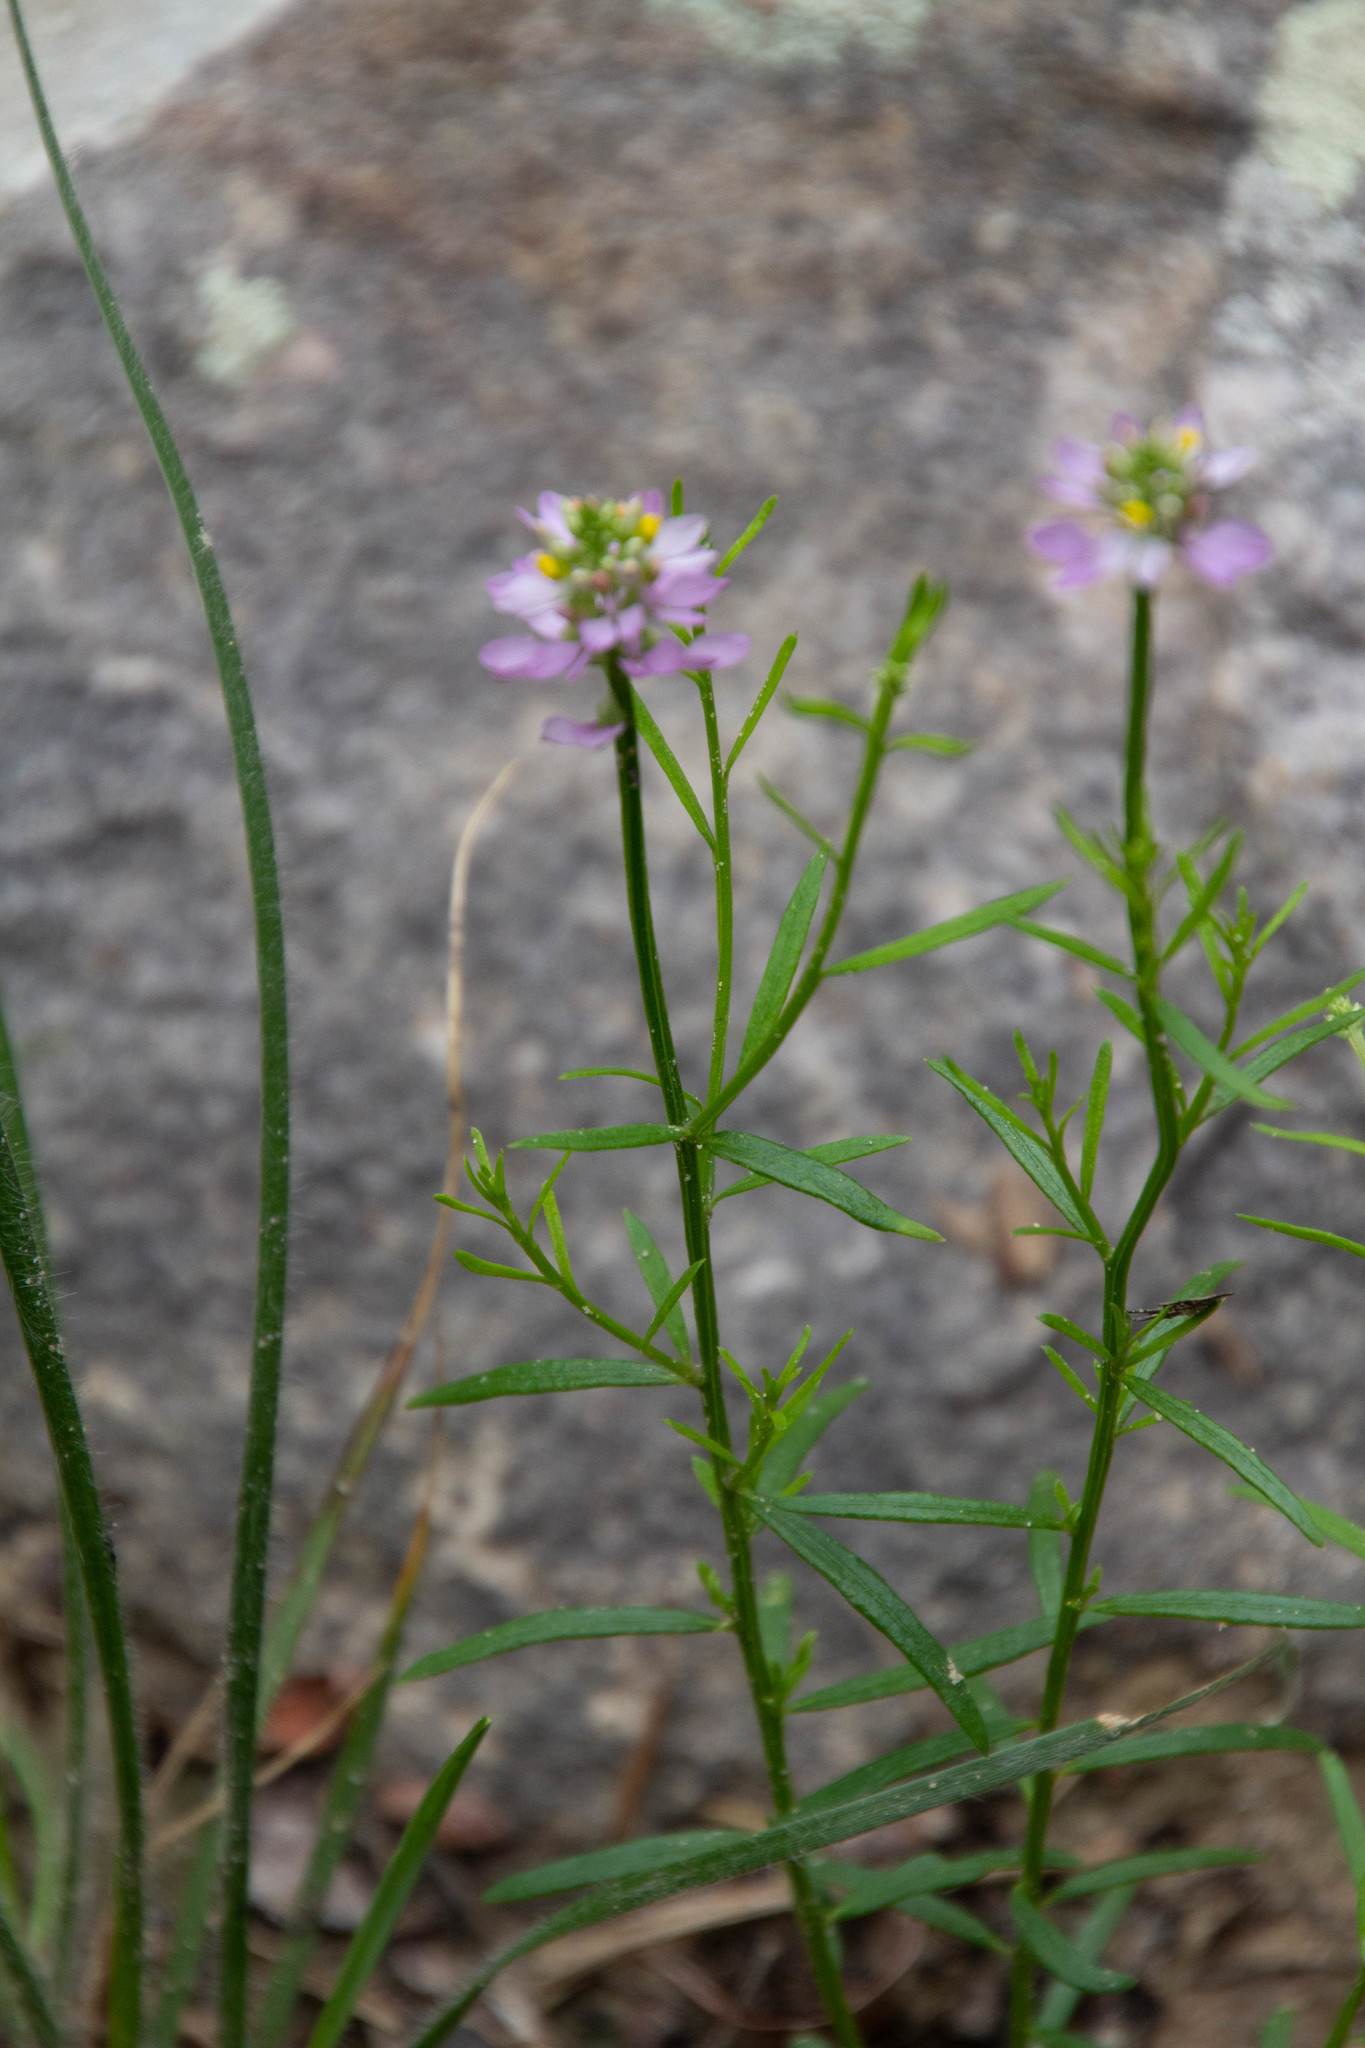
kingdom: Plantae
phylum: Tracheophyta
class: Magnoliopsida
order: Fabales
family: Polygalaceae
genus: Polygala
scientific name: Polygala curtissii
